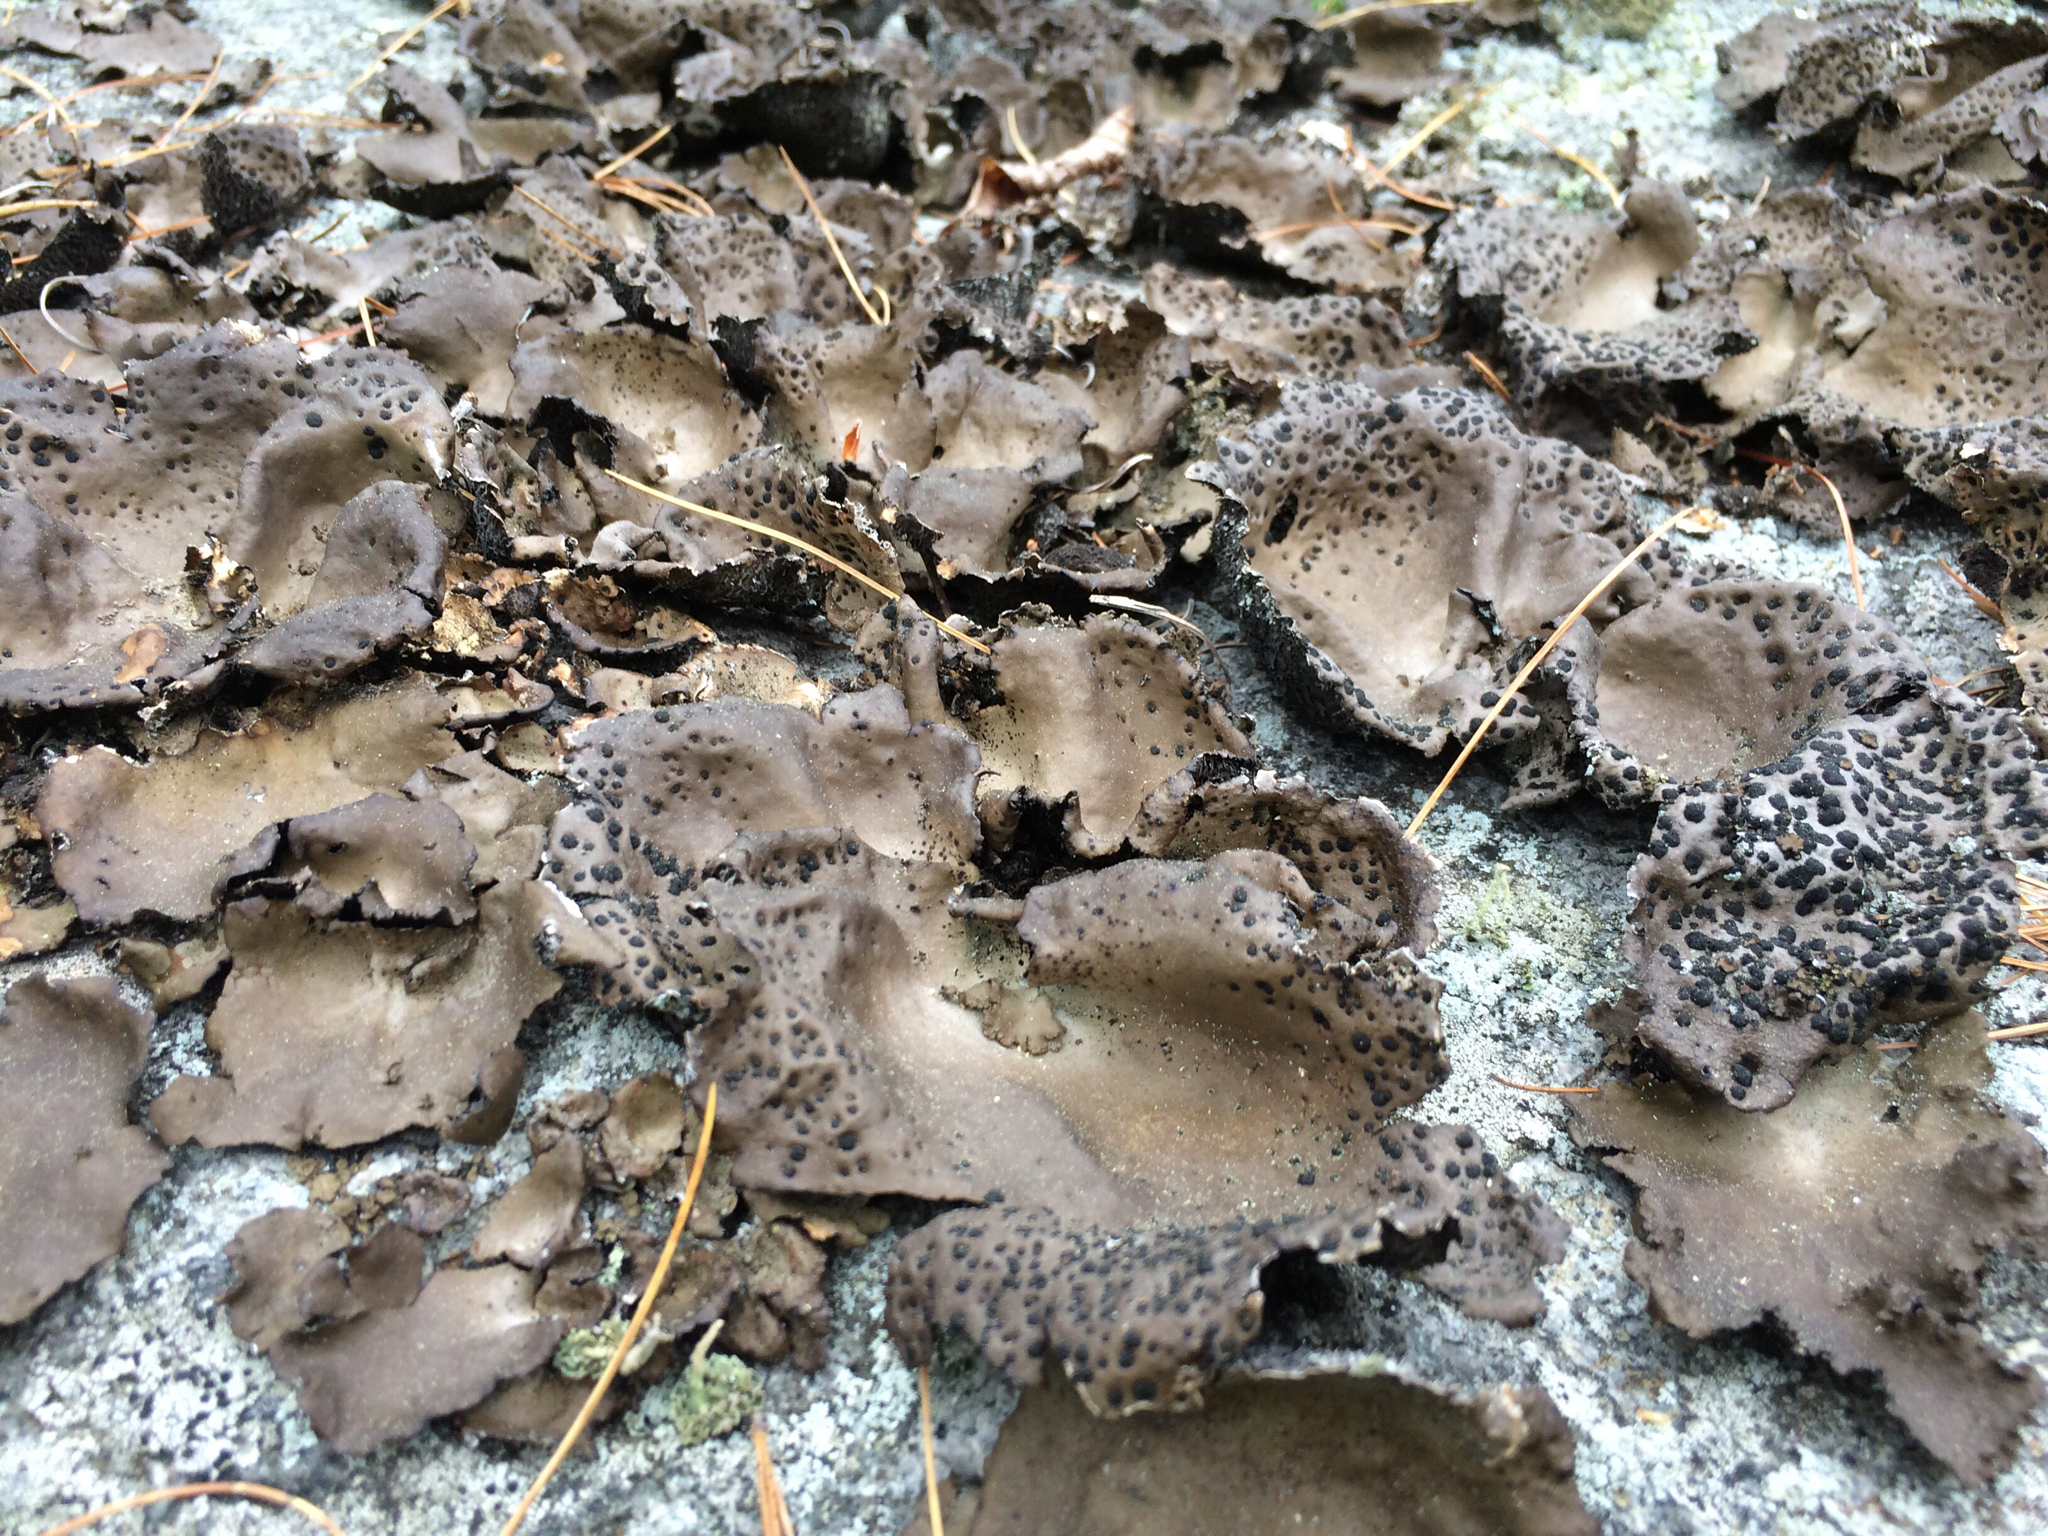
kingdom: Fungi
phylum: Ascomycota
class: Lecanoromycetes
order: Umbilicariales
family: Umbilicariaceae
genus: Umbilicaria
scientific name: Umbilicaria muhlenbergii
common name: Lesser rocktripe
